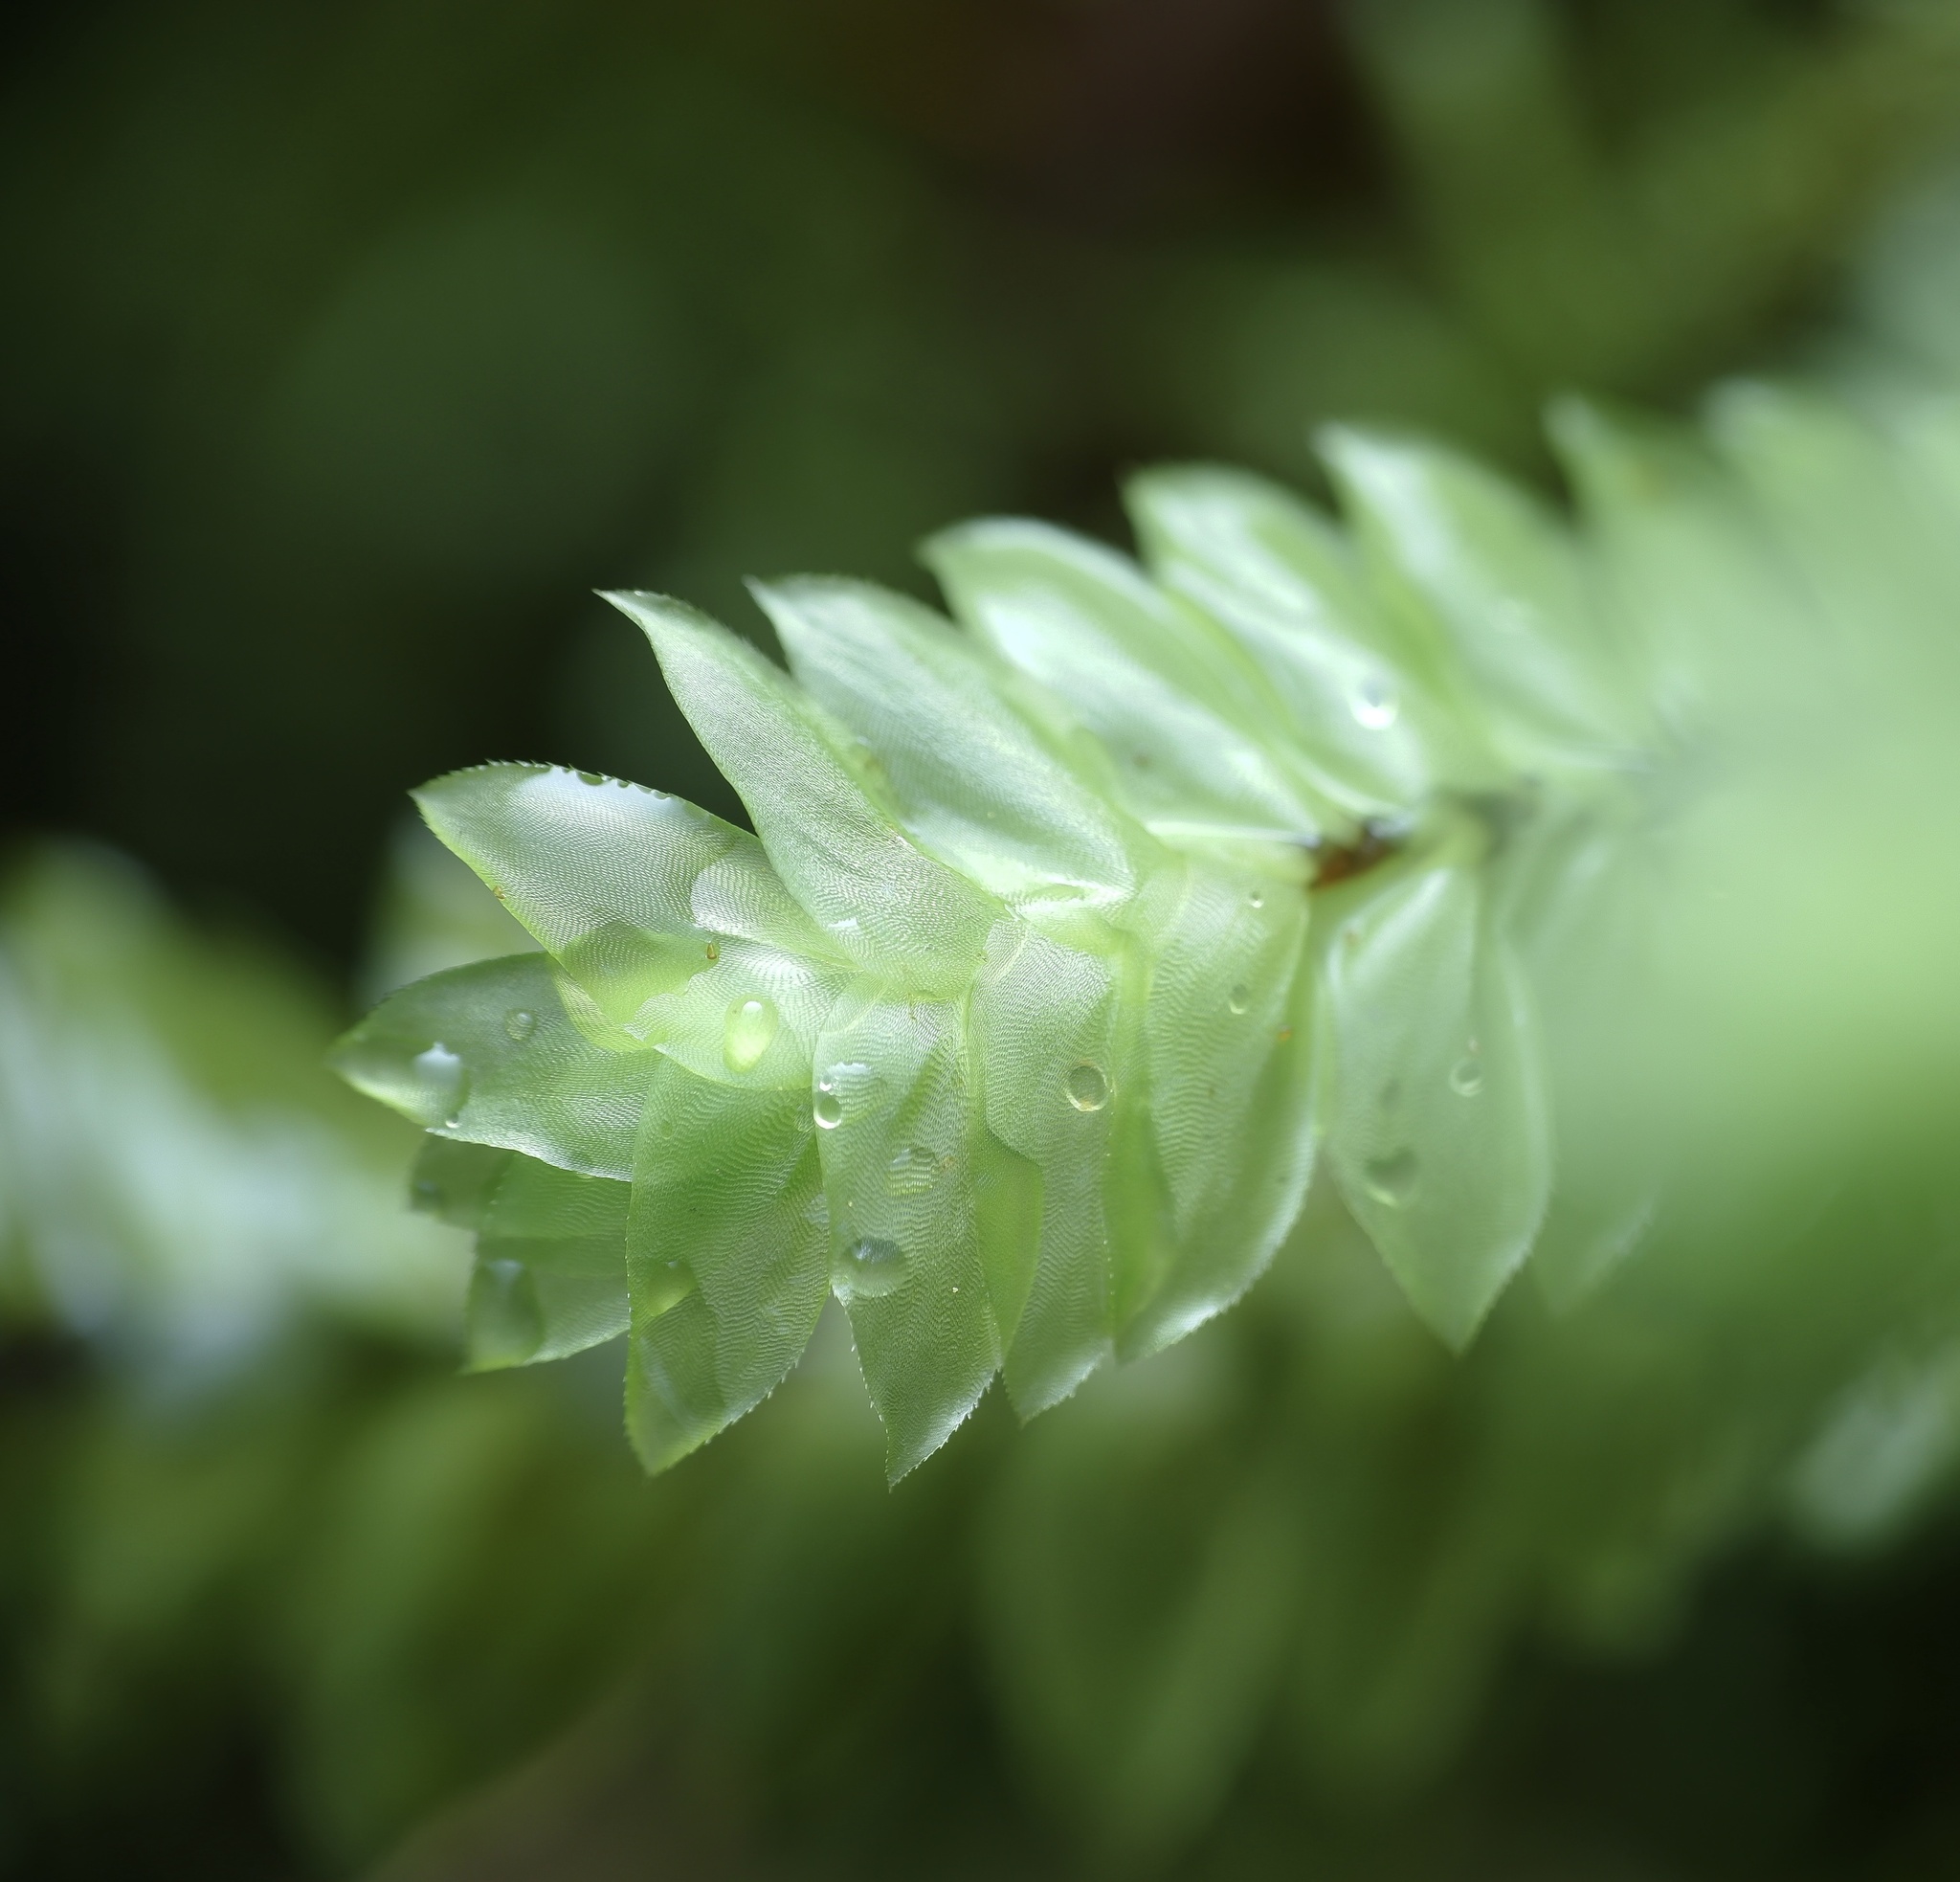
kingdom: Plantae
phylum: Bryophyta
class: Bryopsida
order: Hypopterygiales
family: Hypopterygiaceae
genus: Cyathophorum
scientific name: Cyathophorum bulbosum
